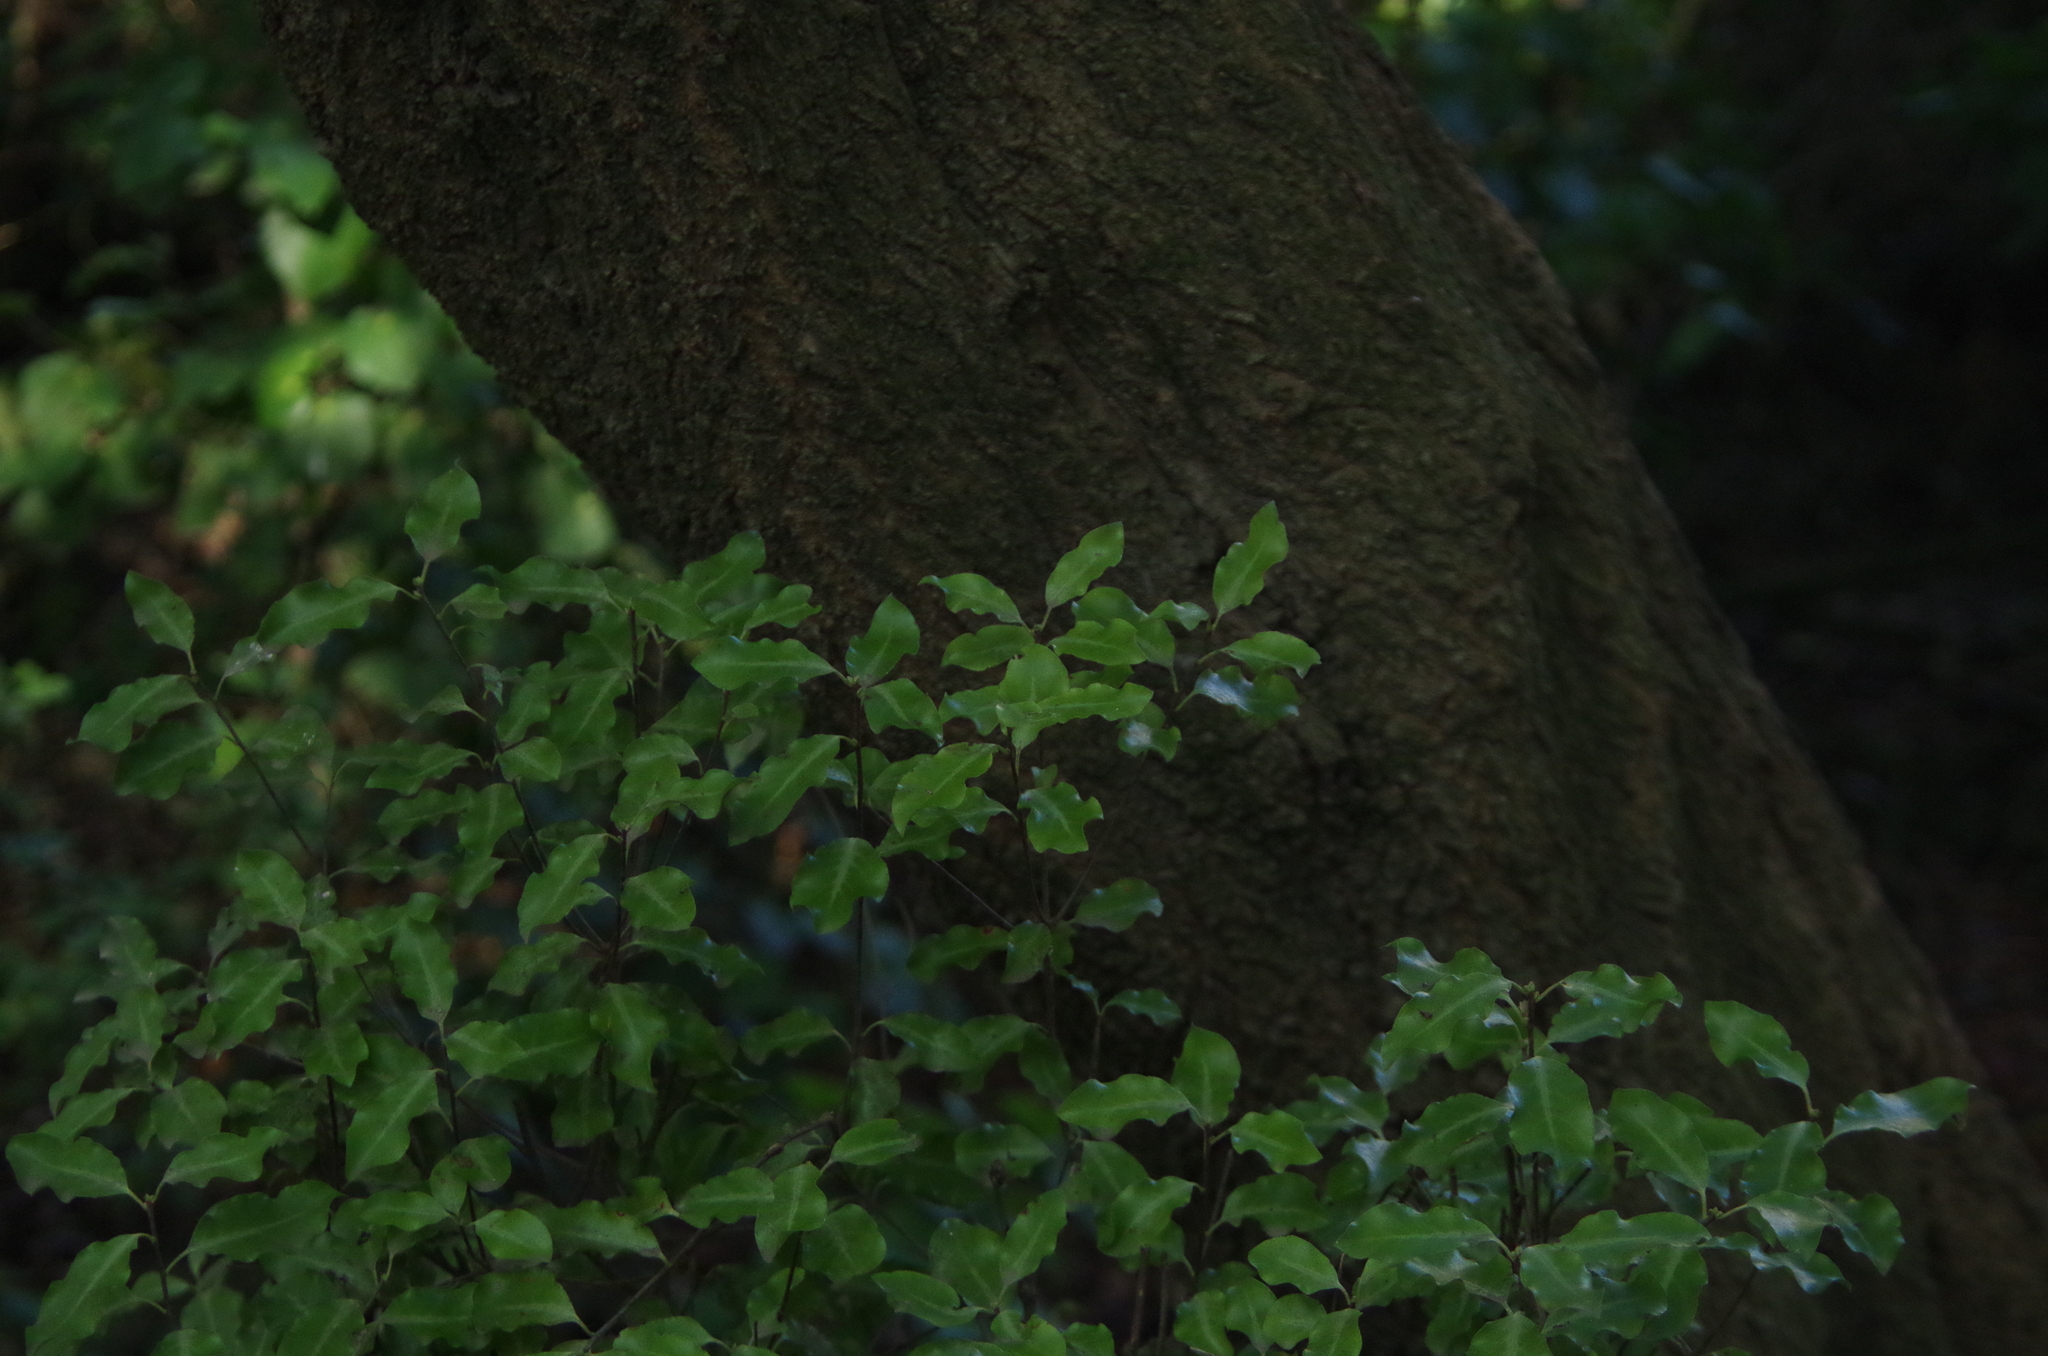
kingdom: Plantae
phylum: Tracheophyta
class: Magnoliopsida
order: Apiales
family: Pittosporaceae
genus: Pittosporum
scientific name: Pittosporum tenuifolium
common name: Kohuhu
